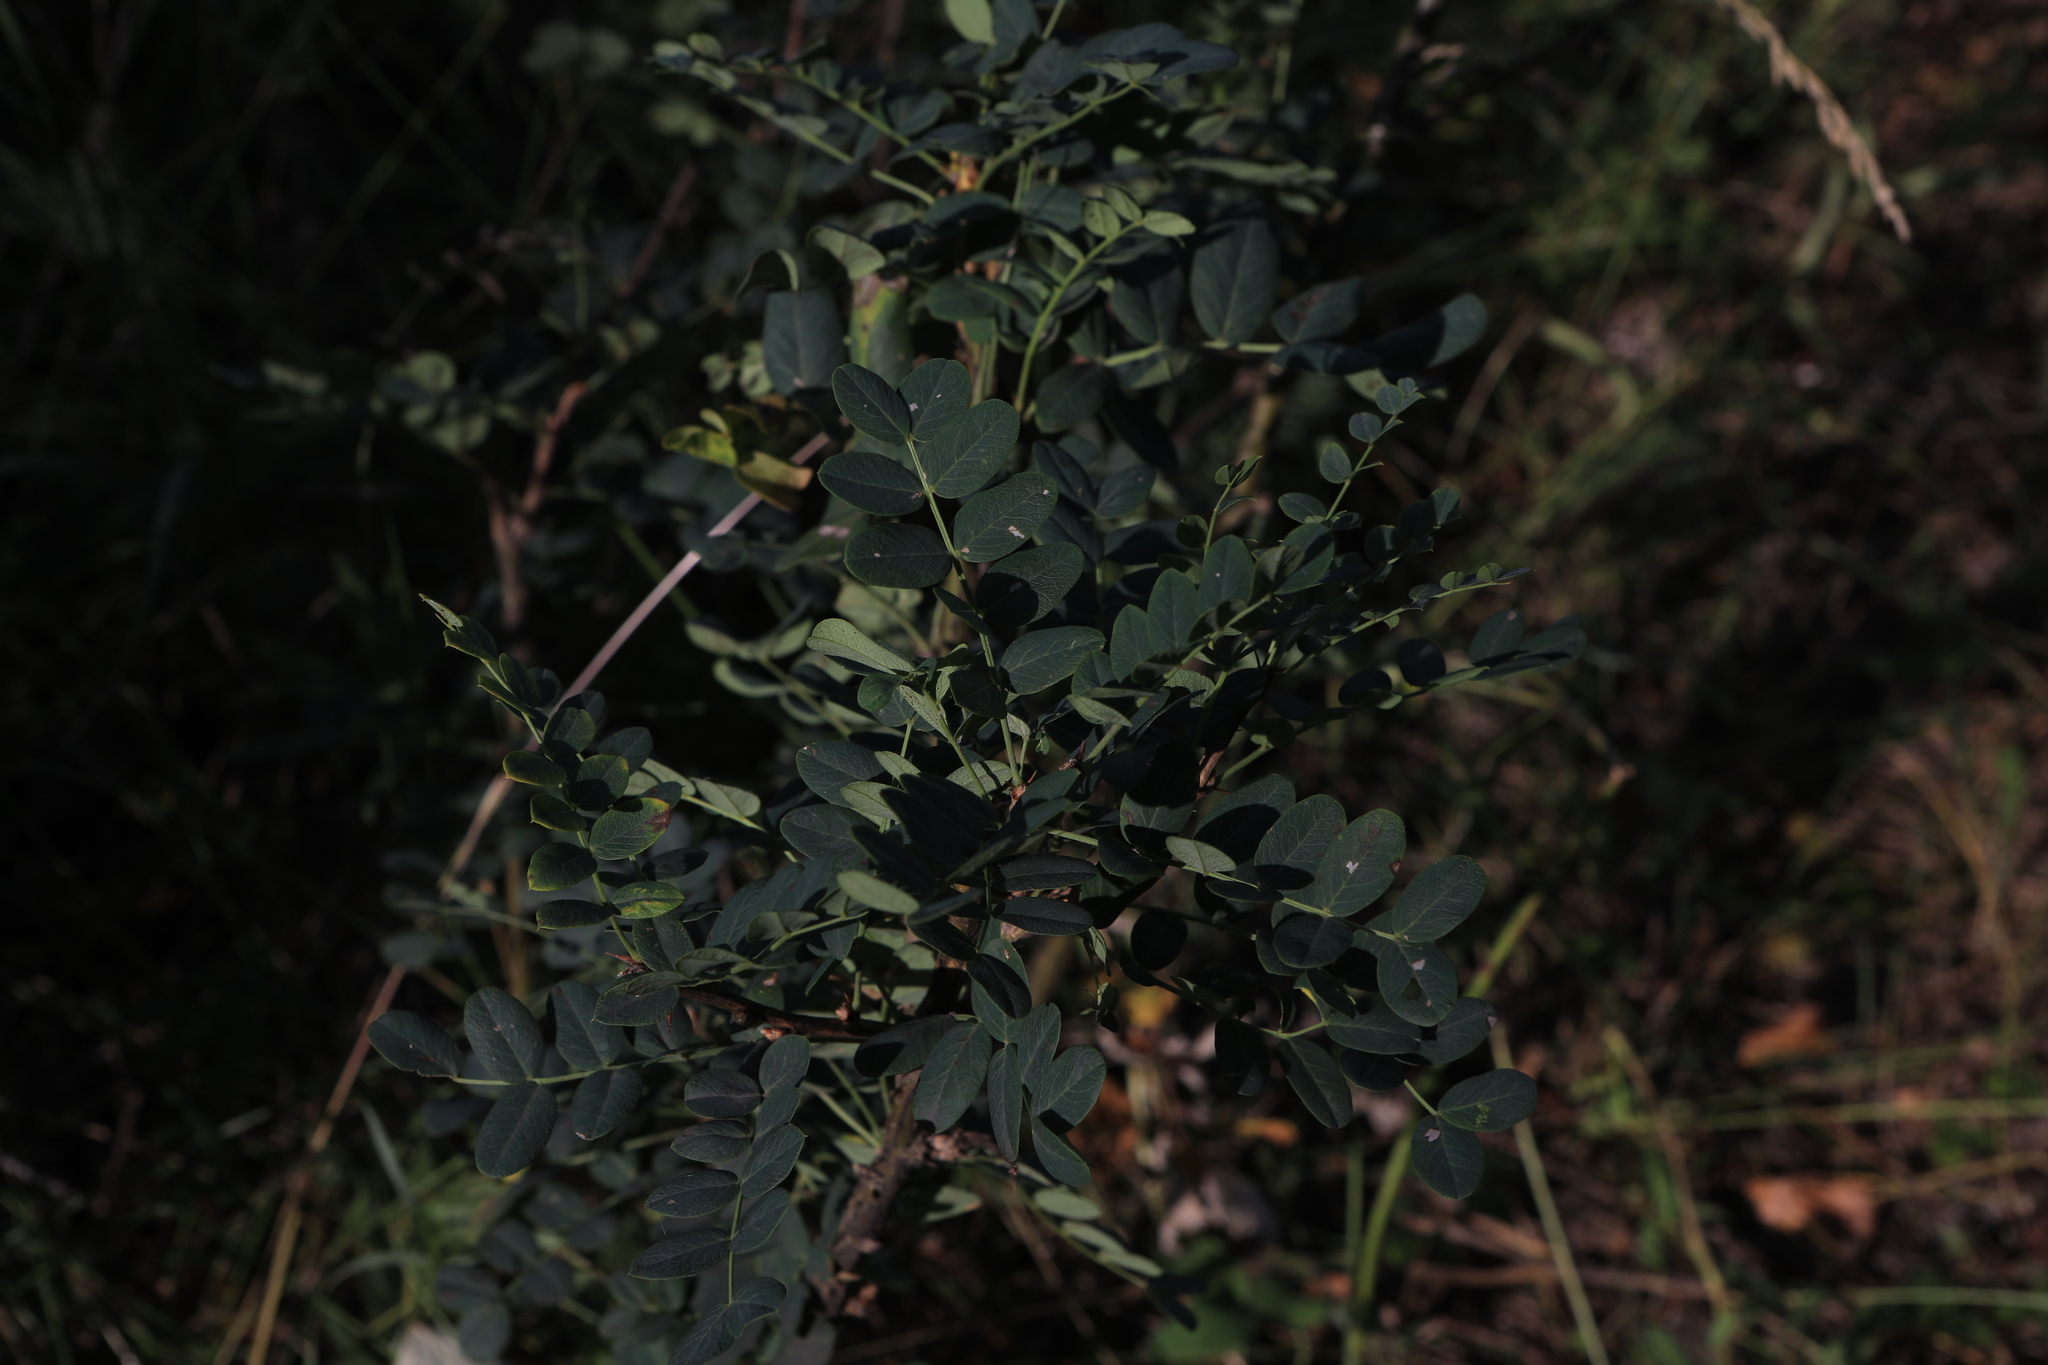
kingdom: Plantae
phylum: Tracheophyta
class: Magnoliopsida
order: Fabales
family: Fabaceae
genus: Caragana
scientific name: Caragana arborescens
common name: Siberian peashrub
